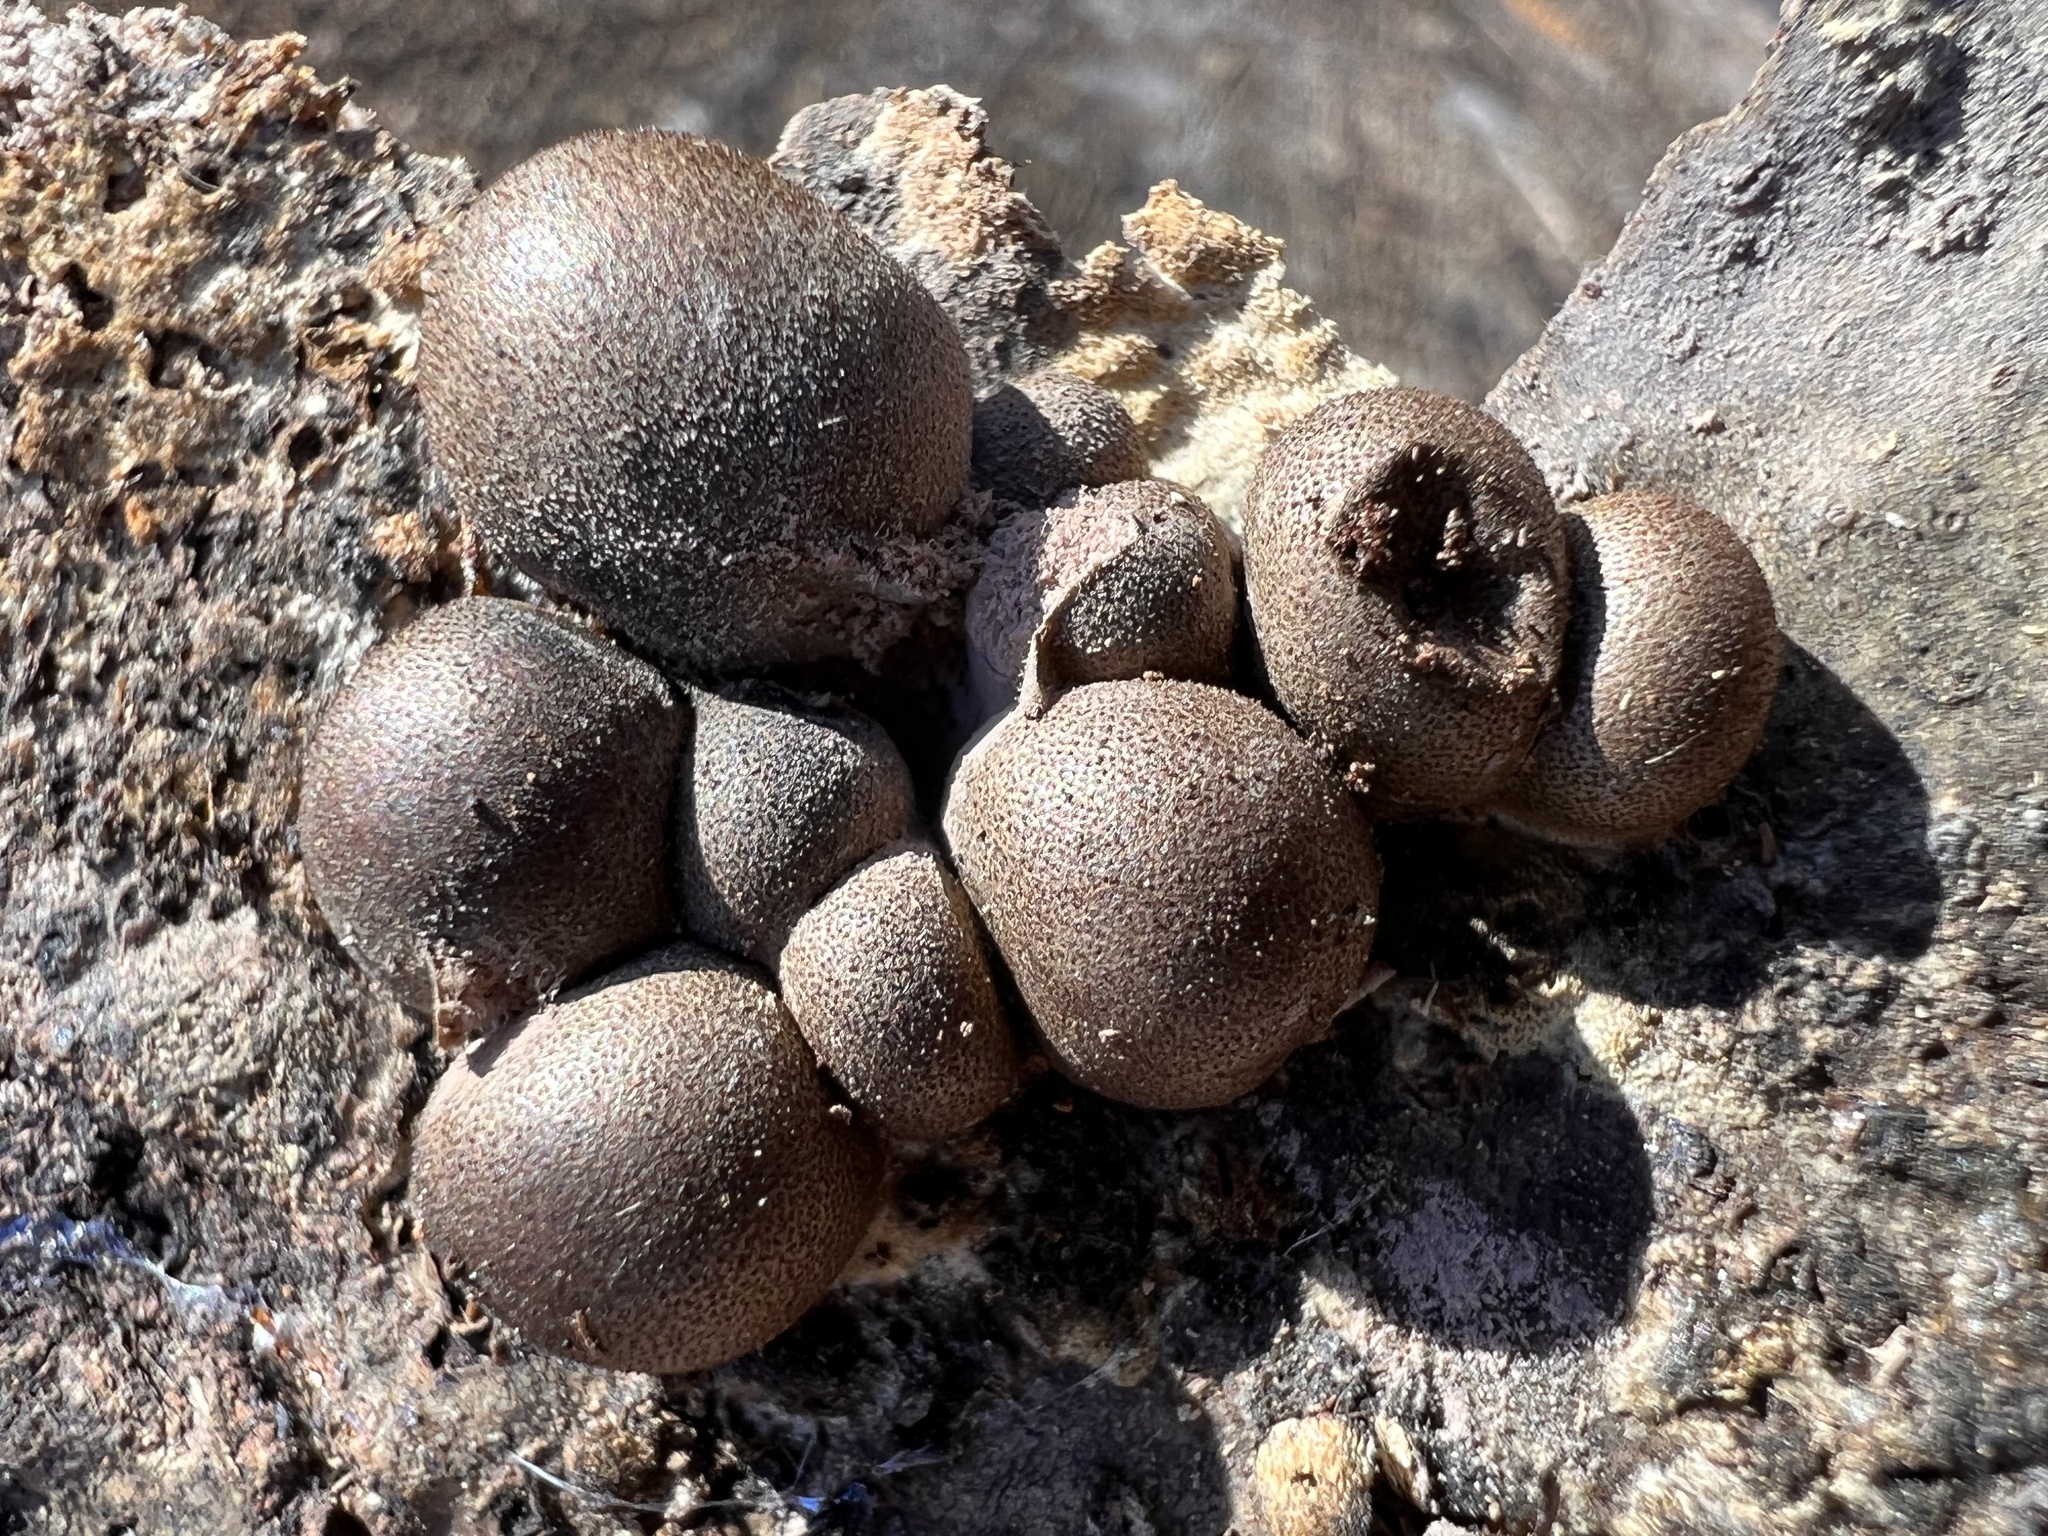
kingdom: Protozoa
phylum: Mycetozoa
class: Myxomycetes
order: Cribrariales
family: Tubiferaceae
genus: Lycogala
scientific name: Lycogala epidendrum
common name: Wolf's milk
